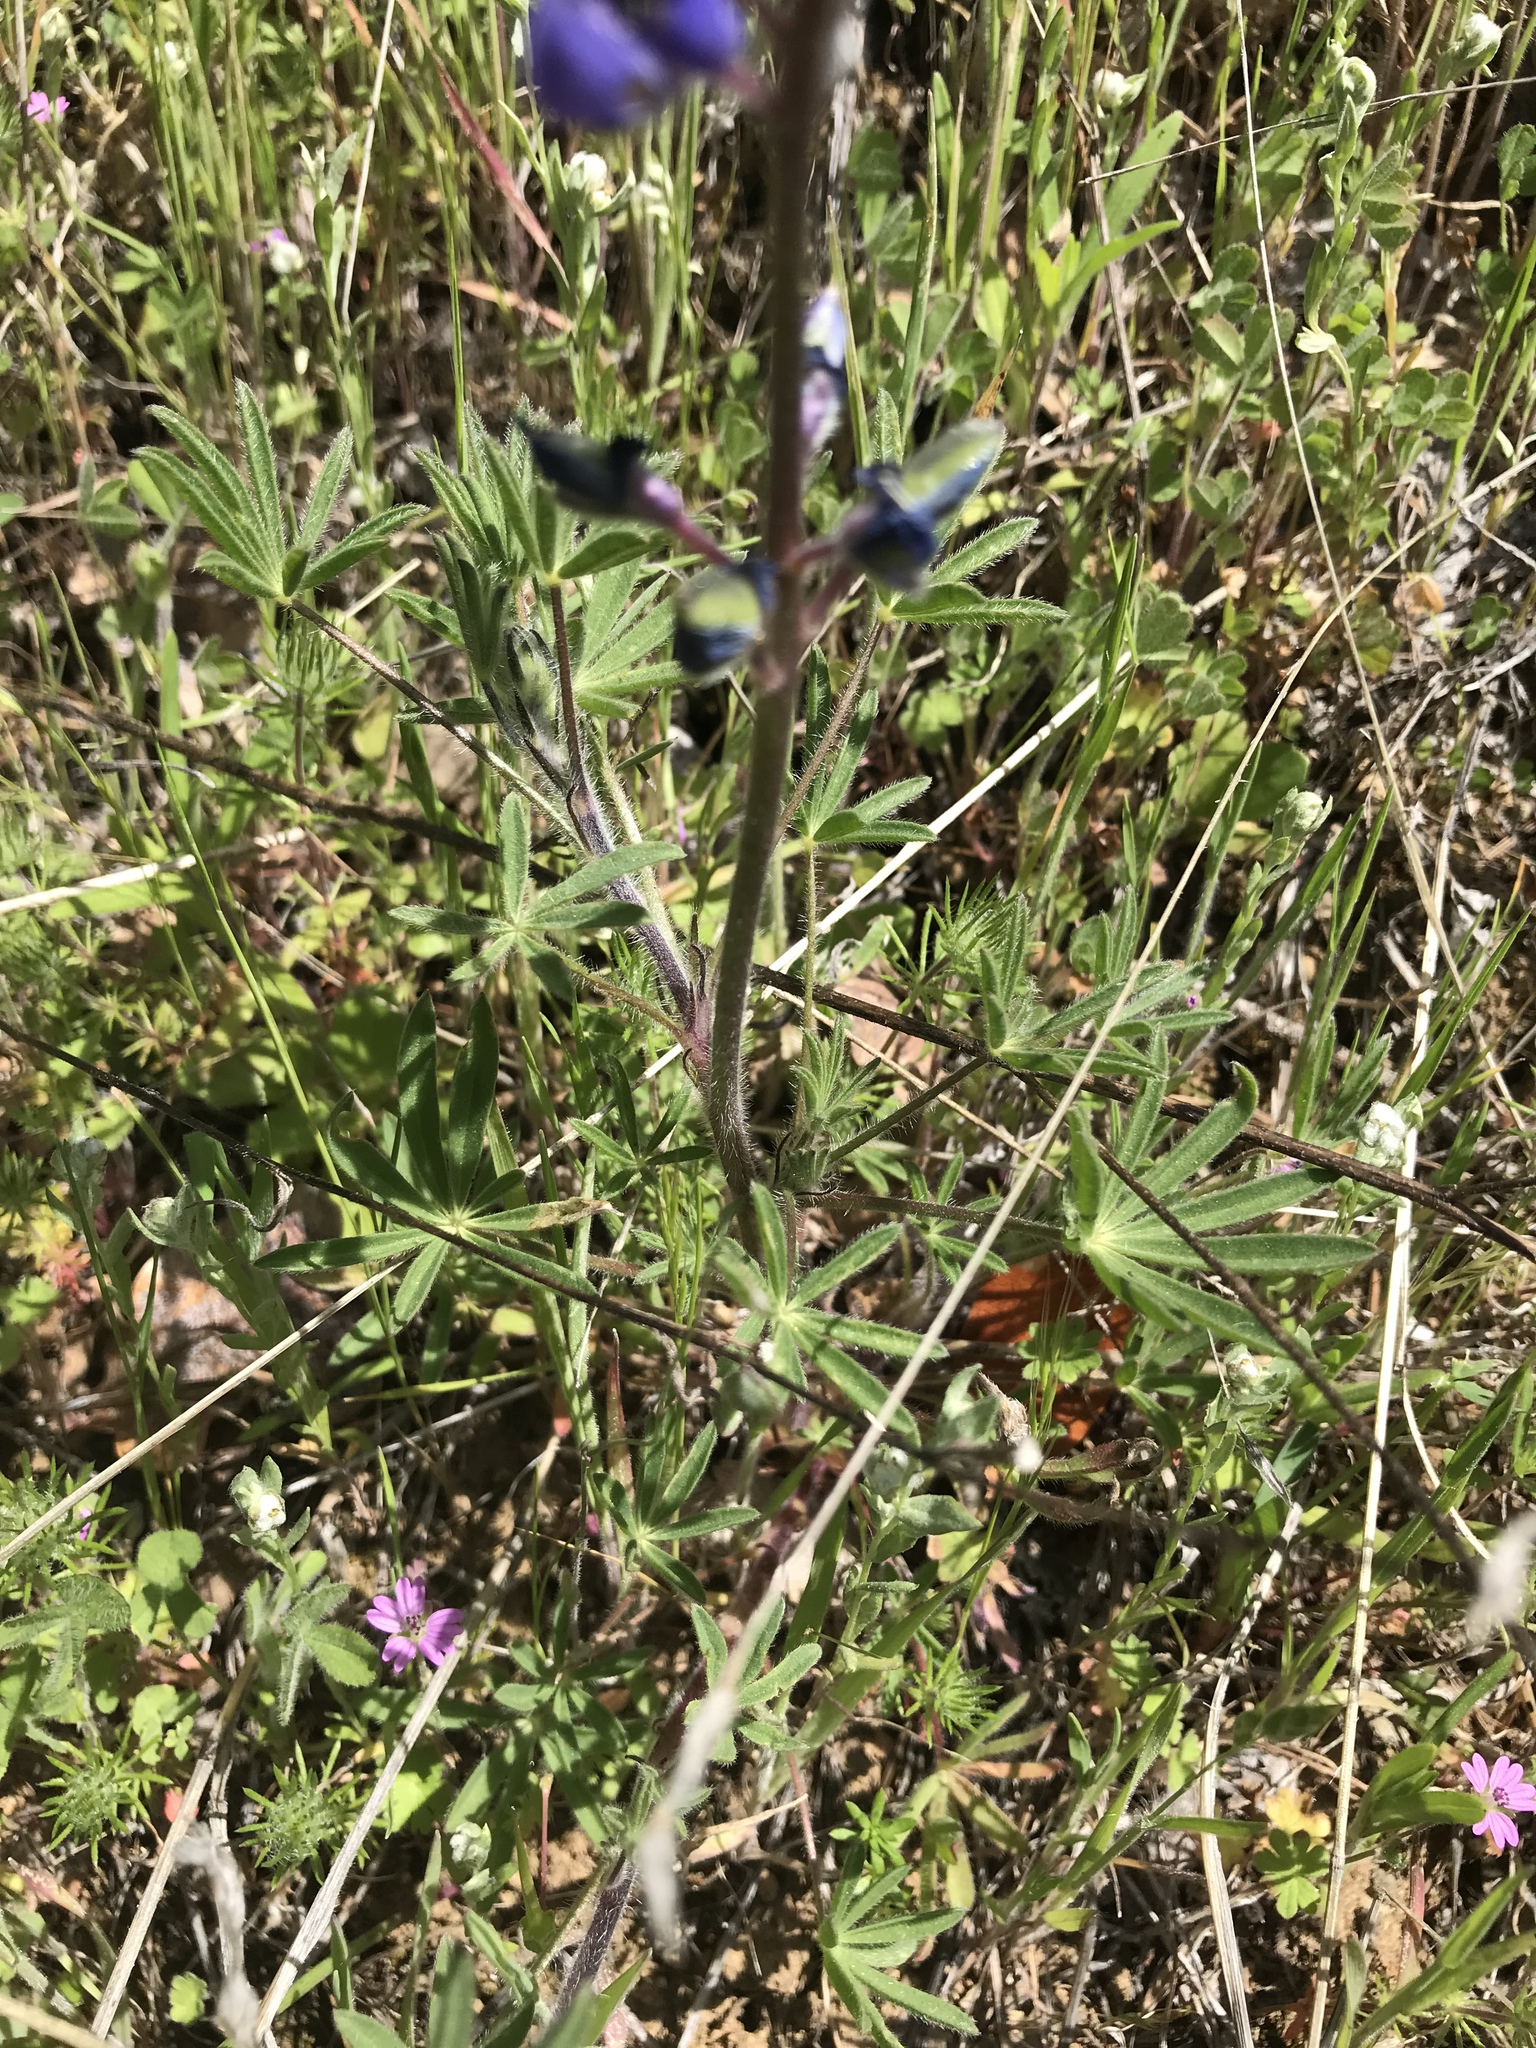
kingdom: Plantae
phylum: Tracheophyta
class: Magnoliopsida
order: Fabales
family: Fabaceae
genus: Lupinus
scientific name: Lupinus bicolor
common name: Miniature lupine
